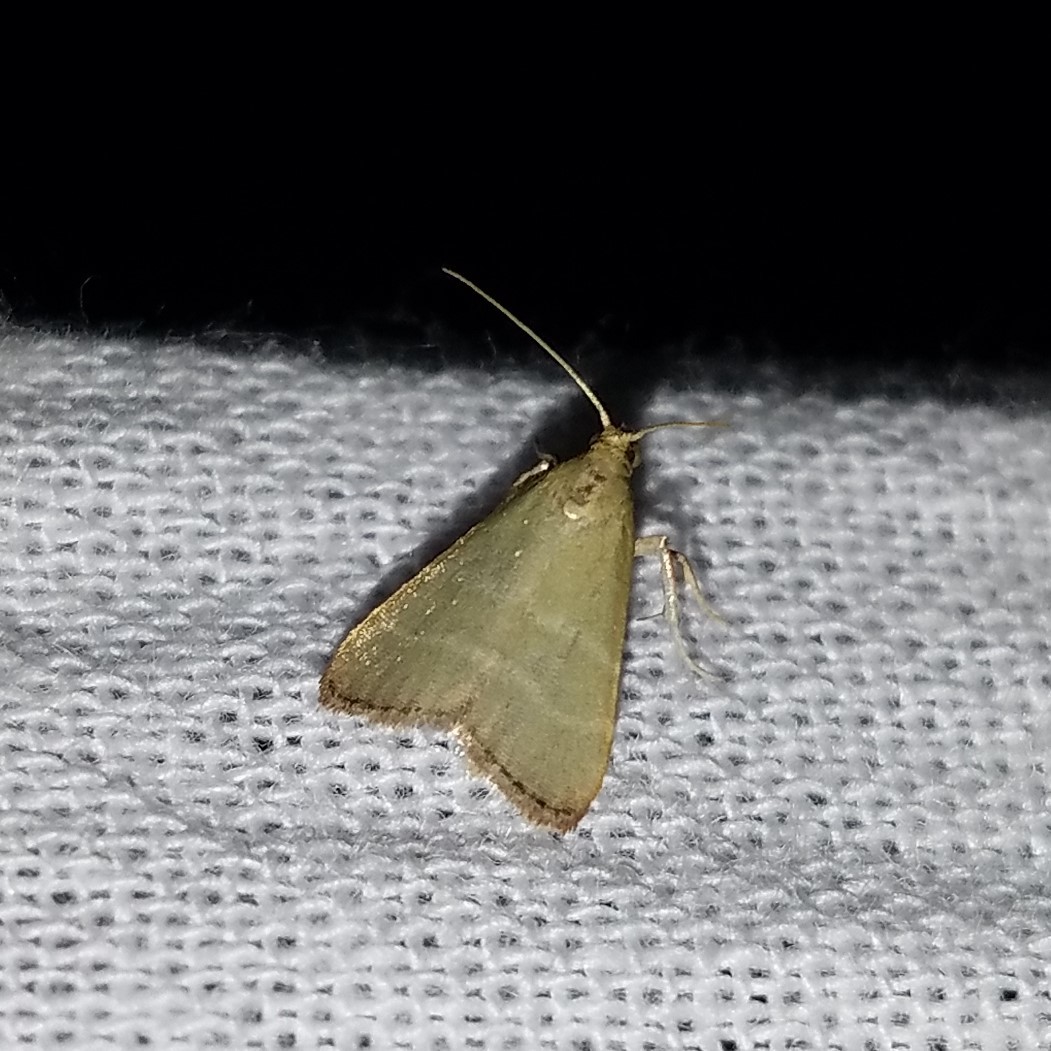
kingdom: Animalia
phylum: Arthropoda
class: Insecta
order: Lepidoptera
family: Pyralidae
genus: Arta
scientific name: Arta olivalis
